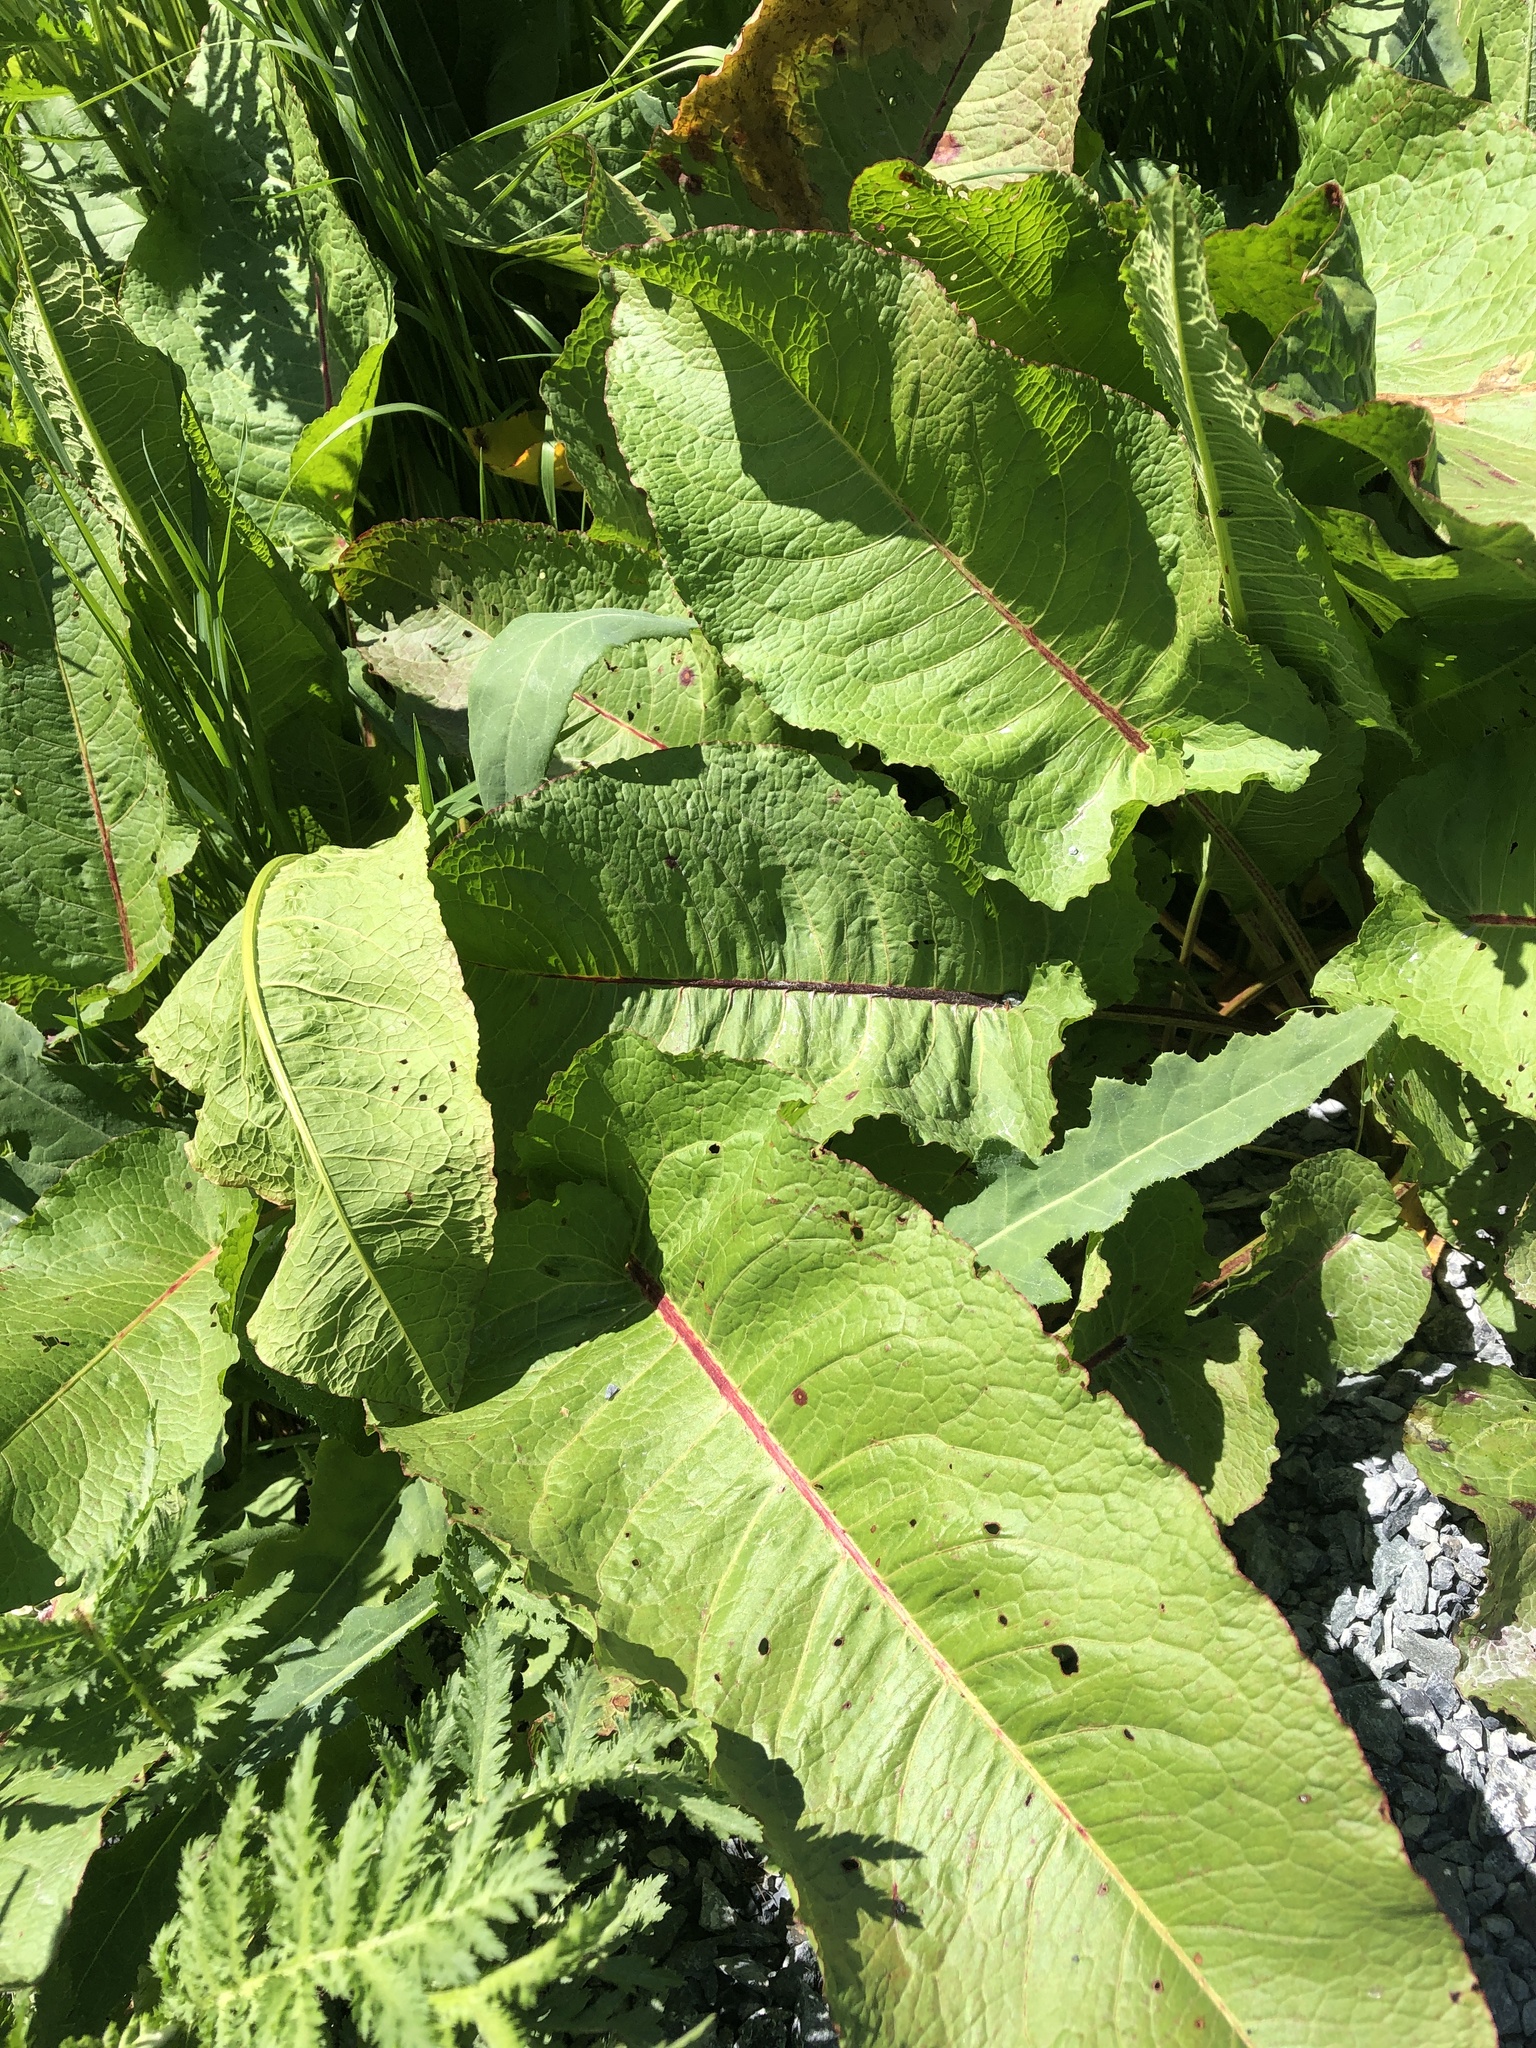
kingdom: Plantae
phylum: Tracheophyta
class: Magnoliopsida
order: Caryophyllales
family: Polygonaceae
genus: Rumex
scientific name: Rumex obtusifolius
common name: Bitter dock
